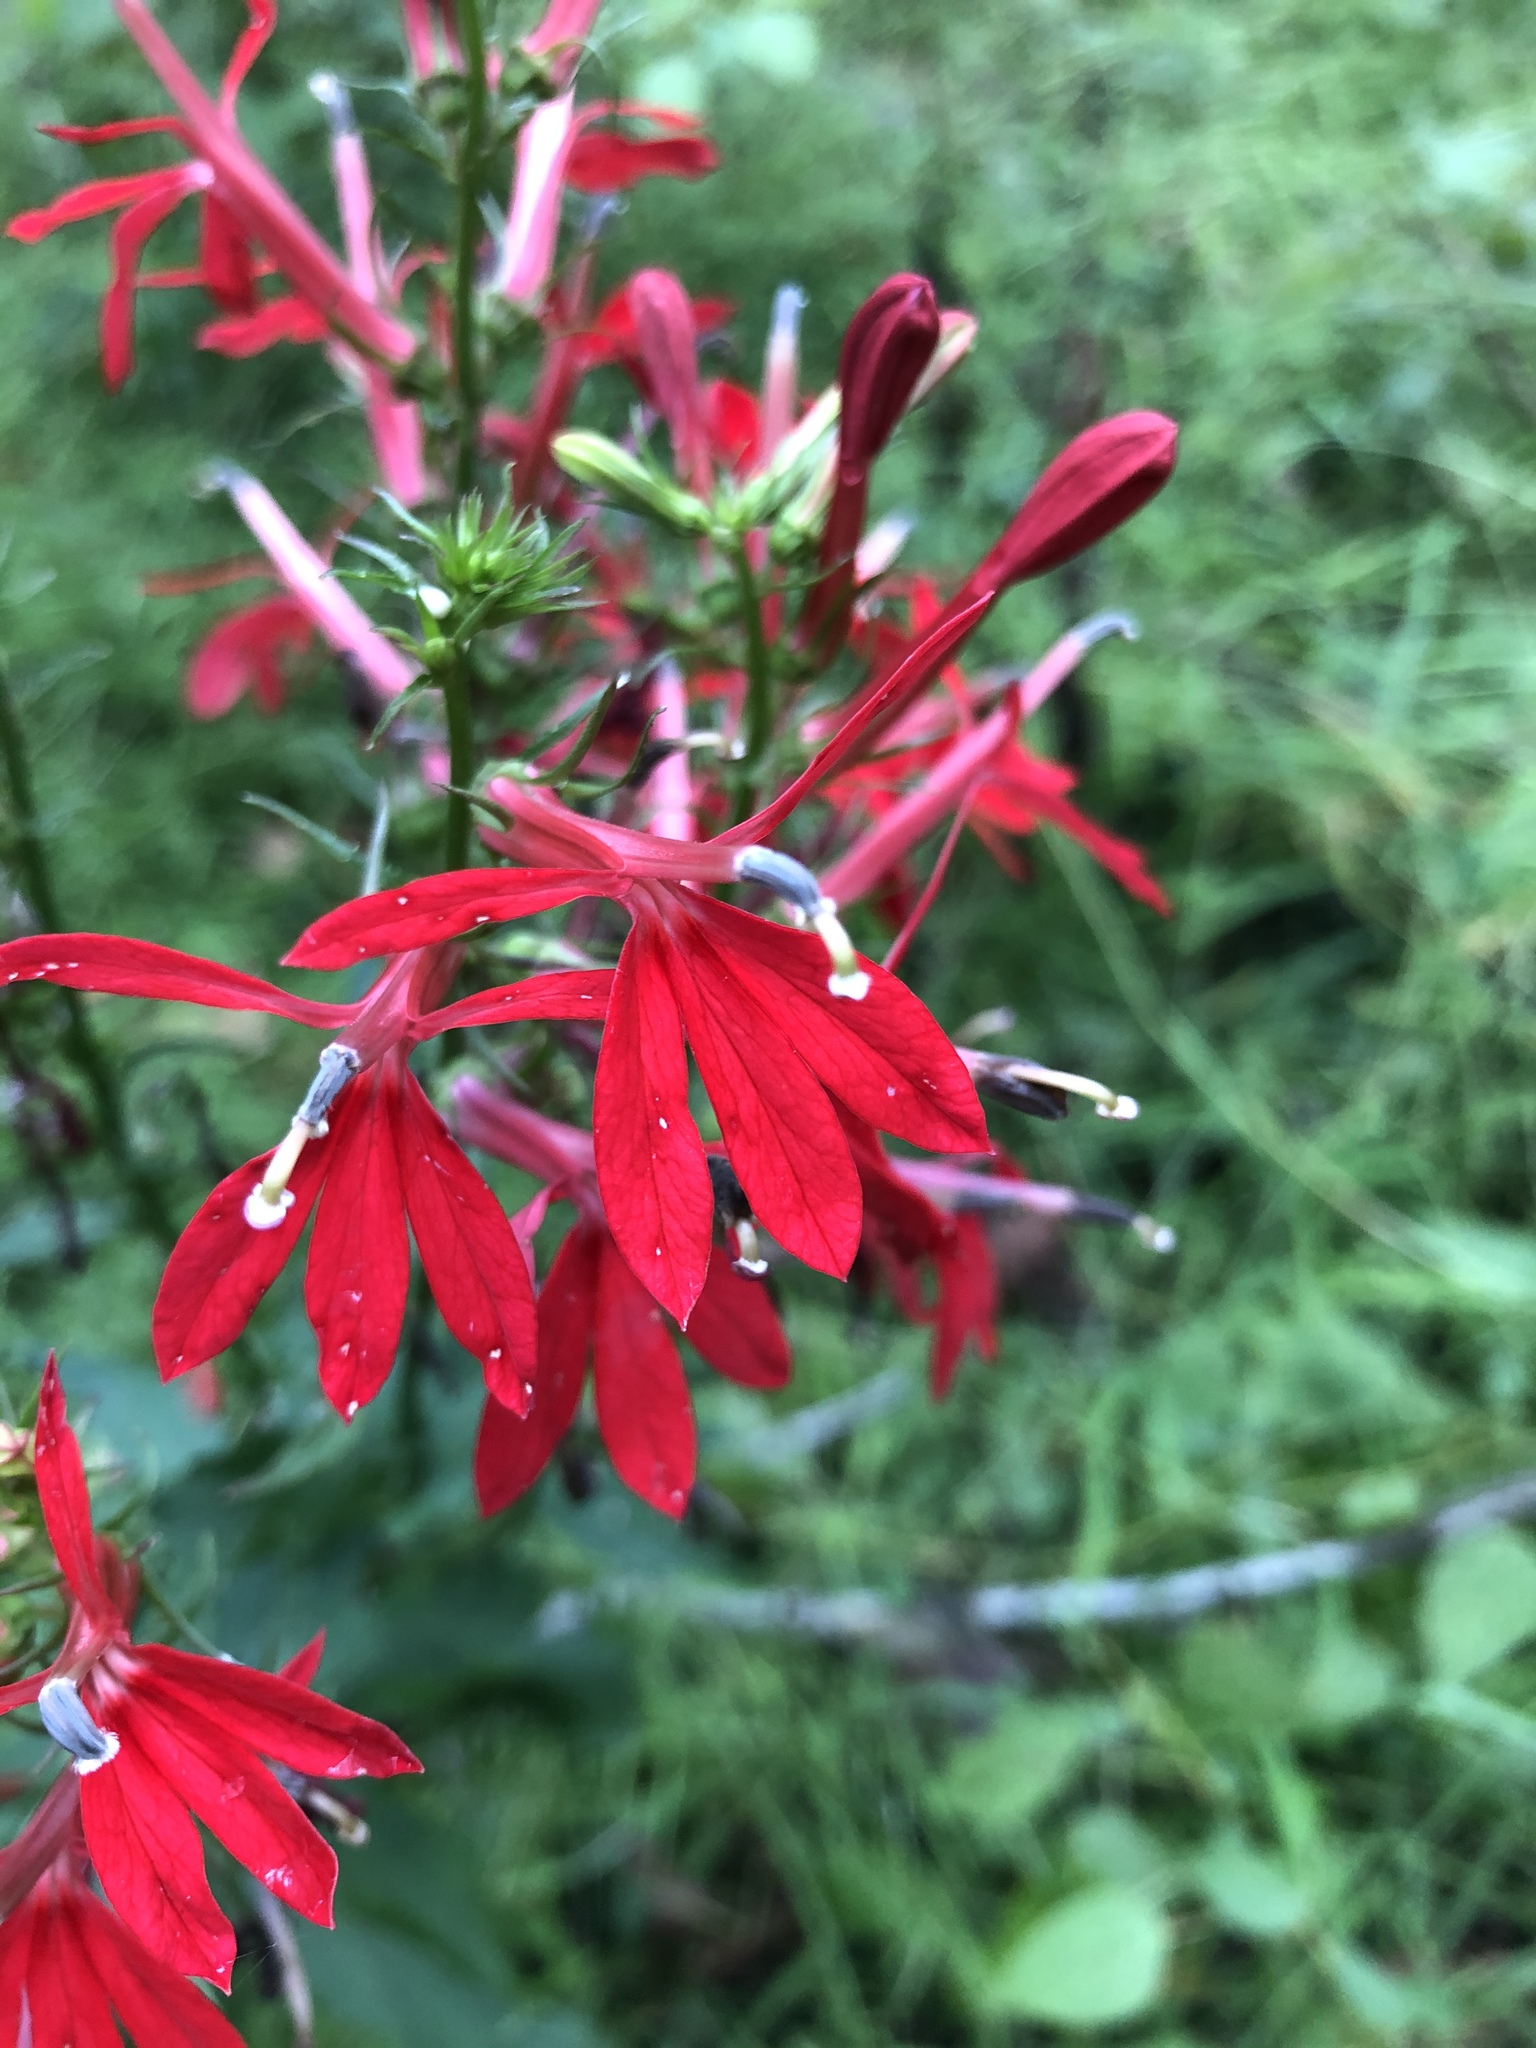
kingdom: Plantae
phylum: Tracheophyta
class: Magnoliopsida
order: Asterales
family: Campanulaceae
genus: Lobelia
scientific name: Lobelia cardinalis
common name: Cardinal flower
